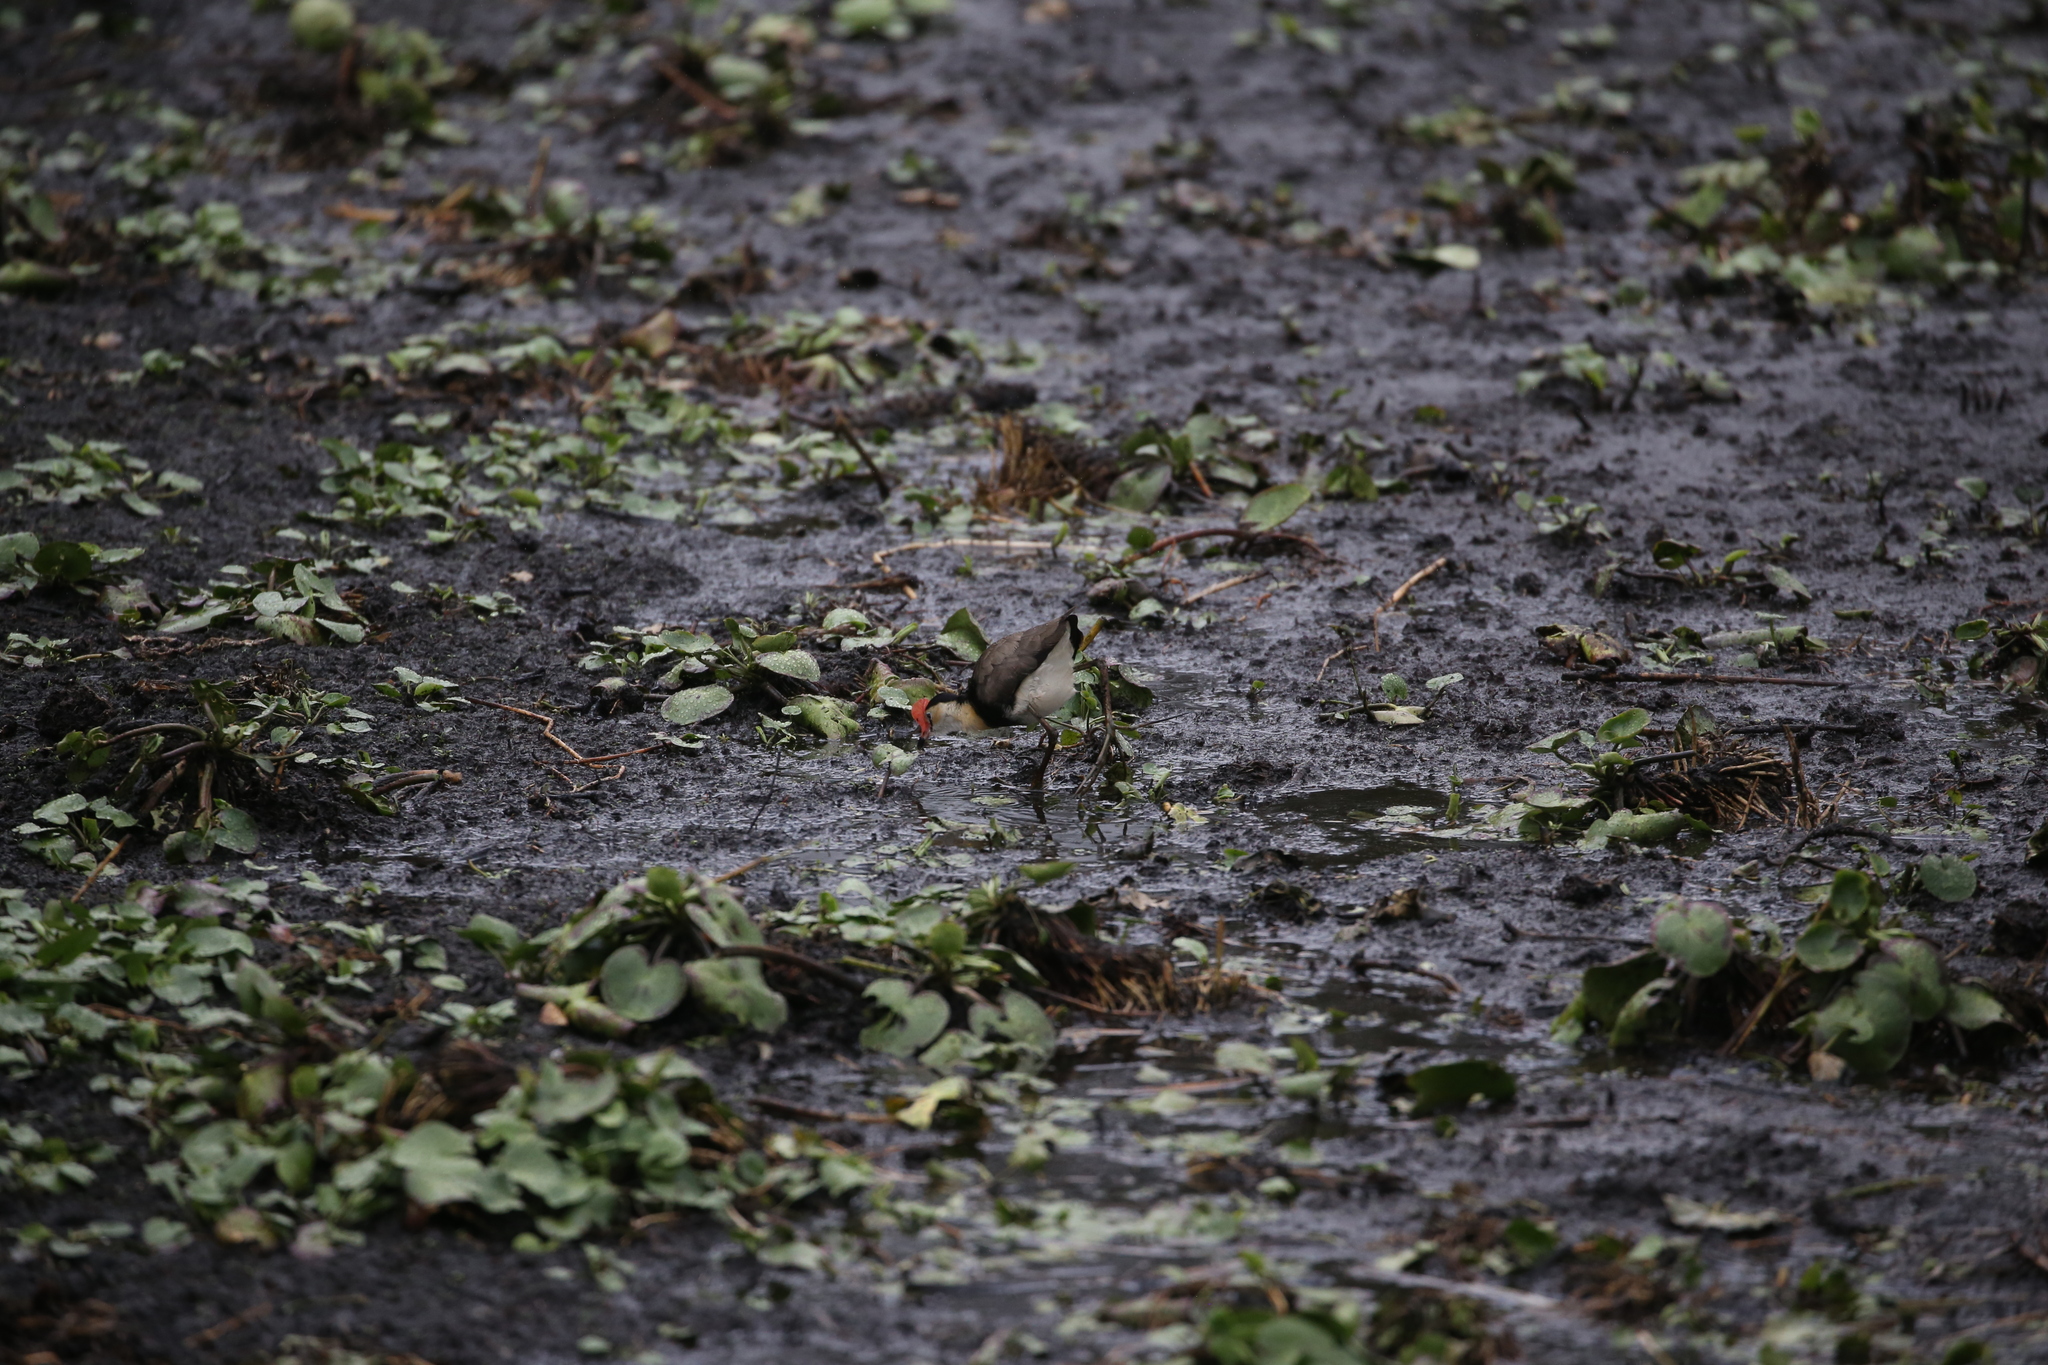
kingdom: Animalia
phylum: Chordata
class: Aves
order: Charadriiformes
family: Jacanidae
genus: Irediparra
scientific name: Irediparra gallinacea
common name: Comb-crested jacana
